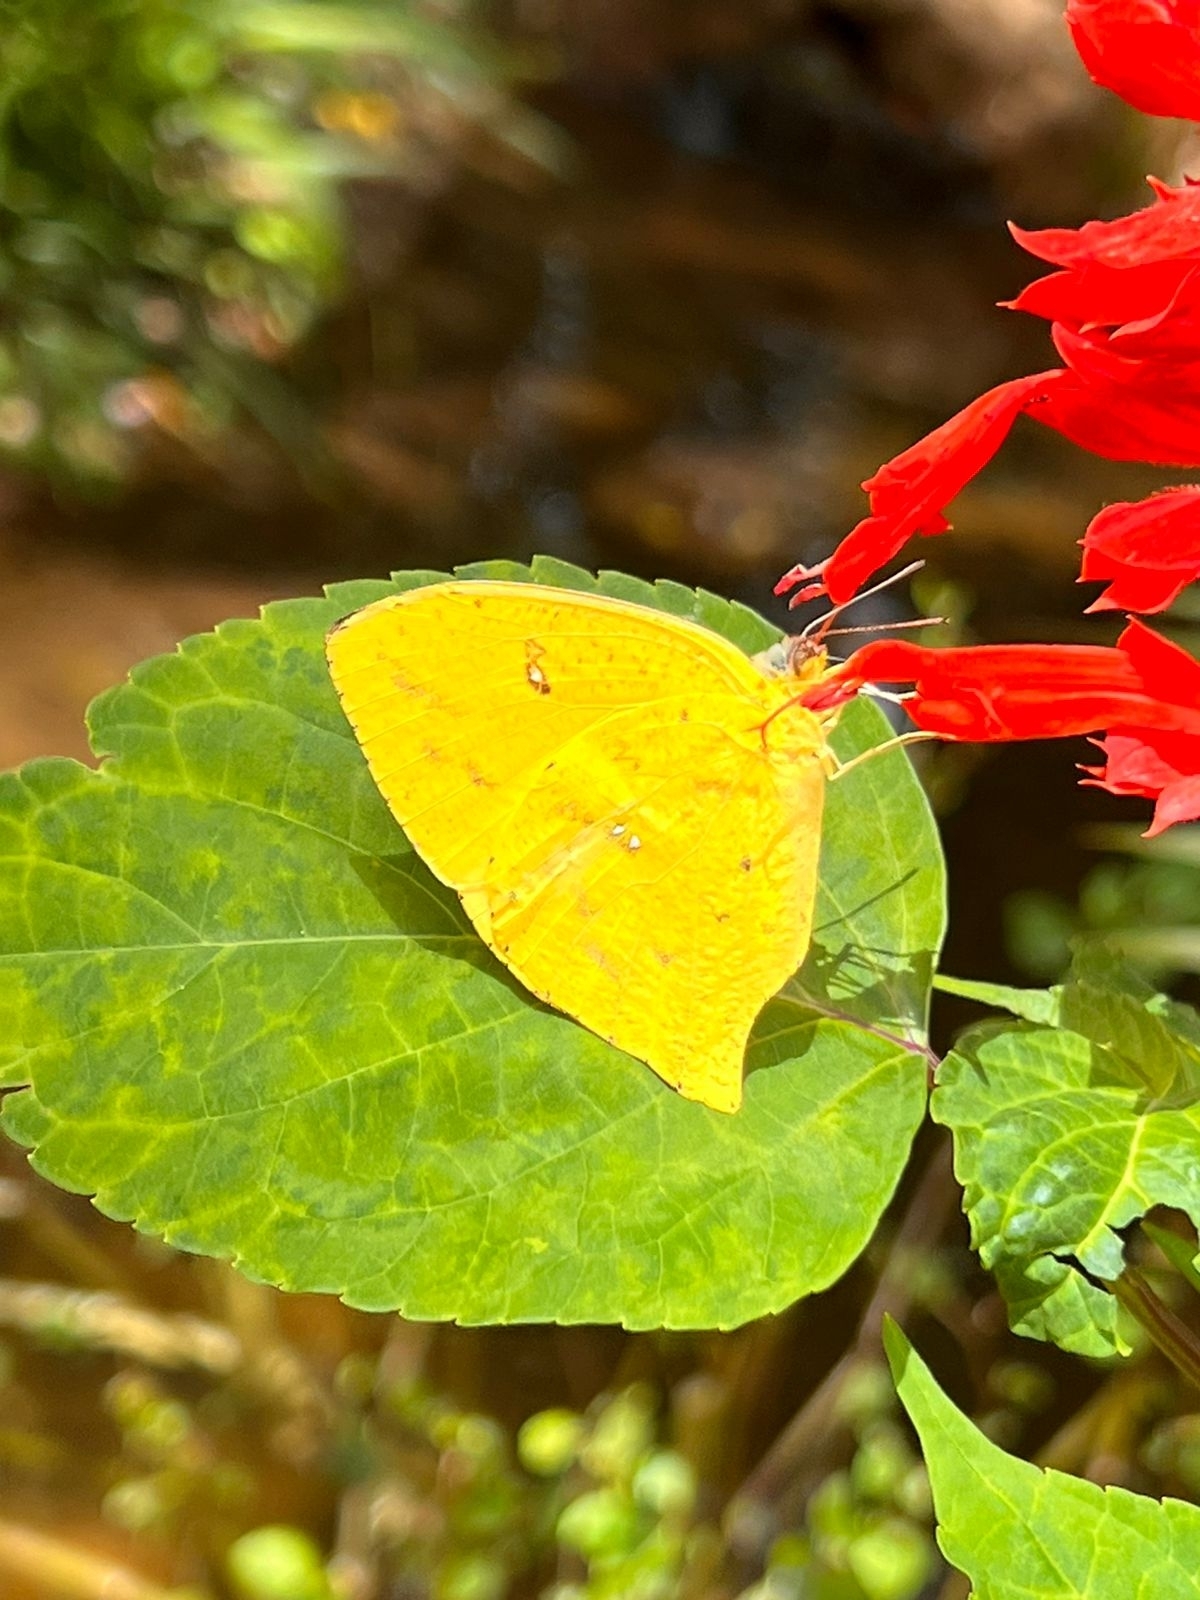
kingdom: Animalia
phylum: Arthropoda
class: Insecta
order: Lepidoptera
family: Pieridae
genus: Phoebis
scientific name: Phoebis neocypris
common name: Tailed sulphur
